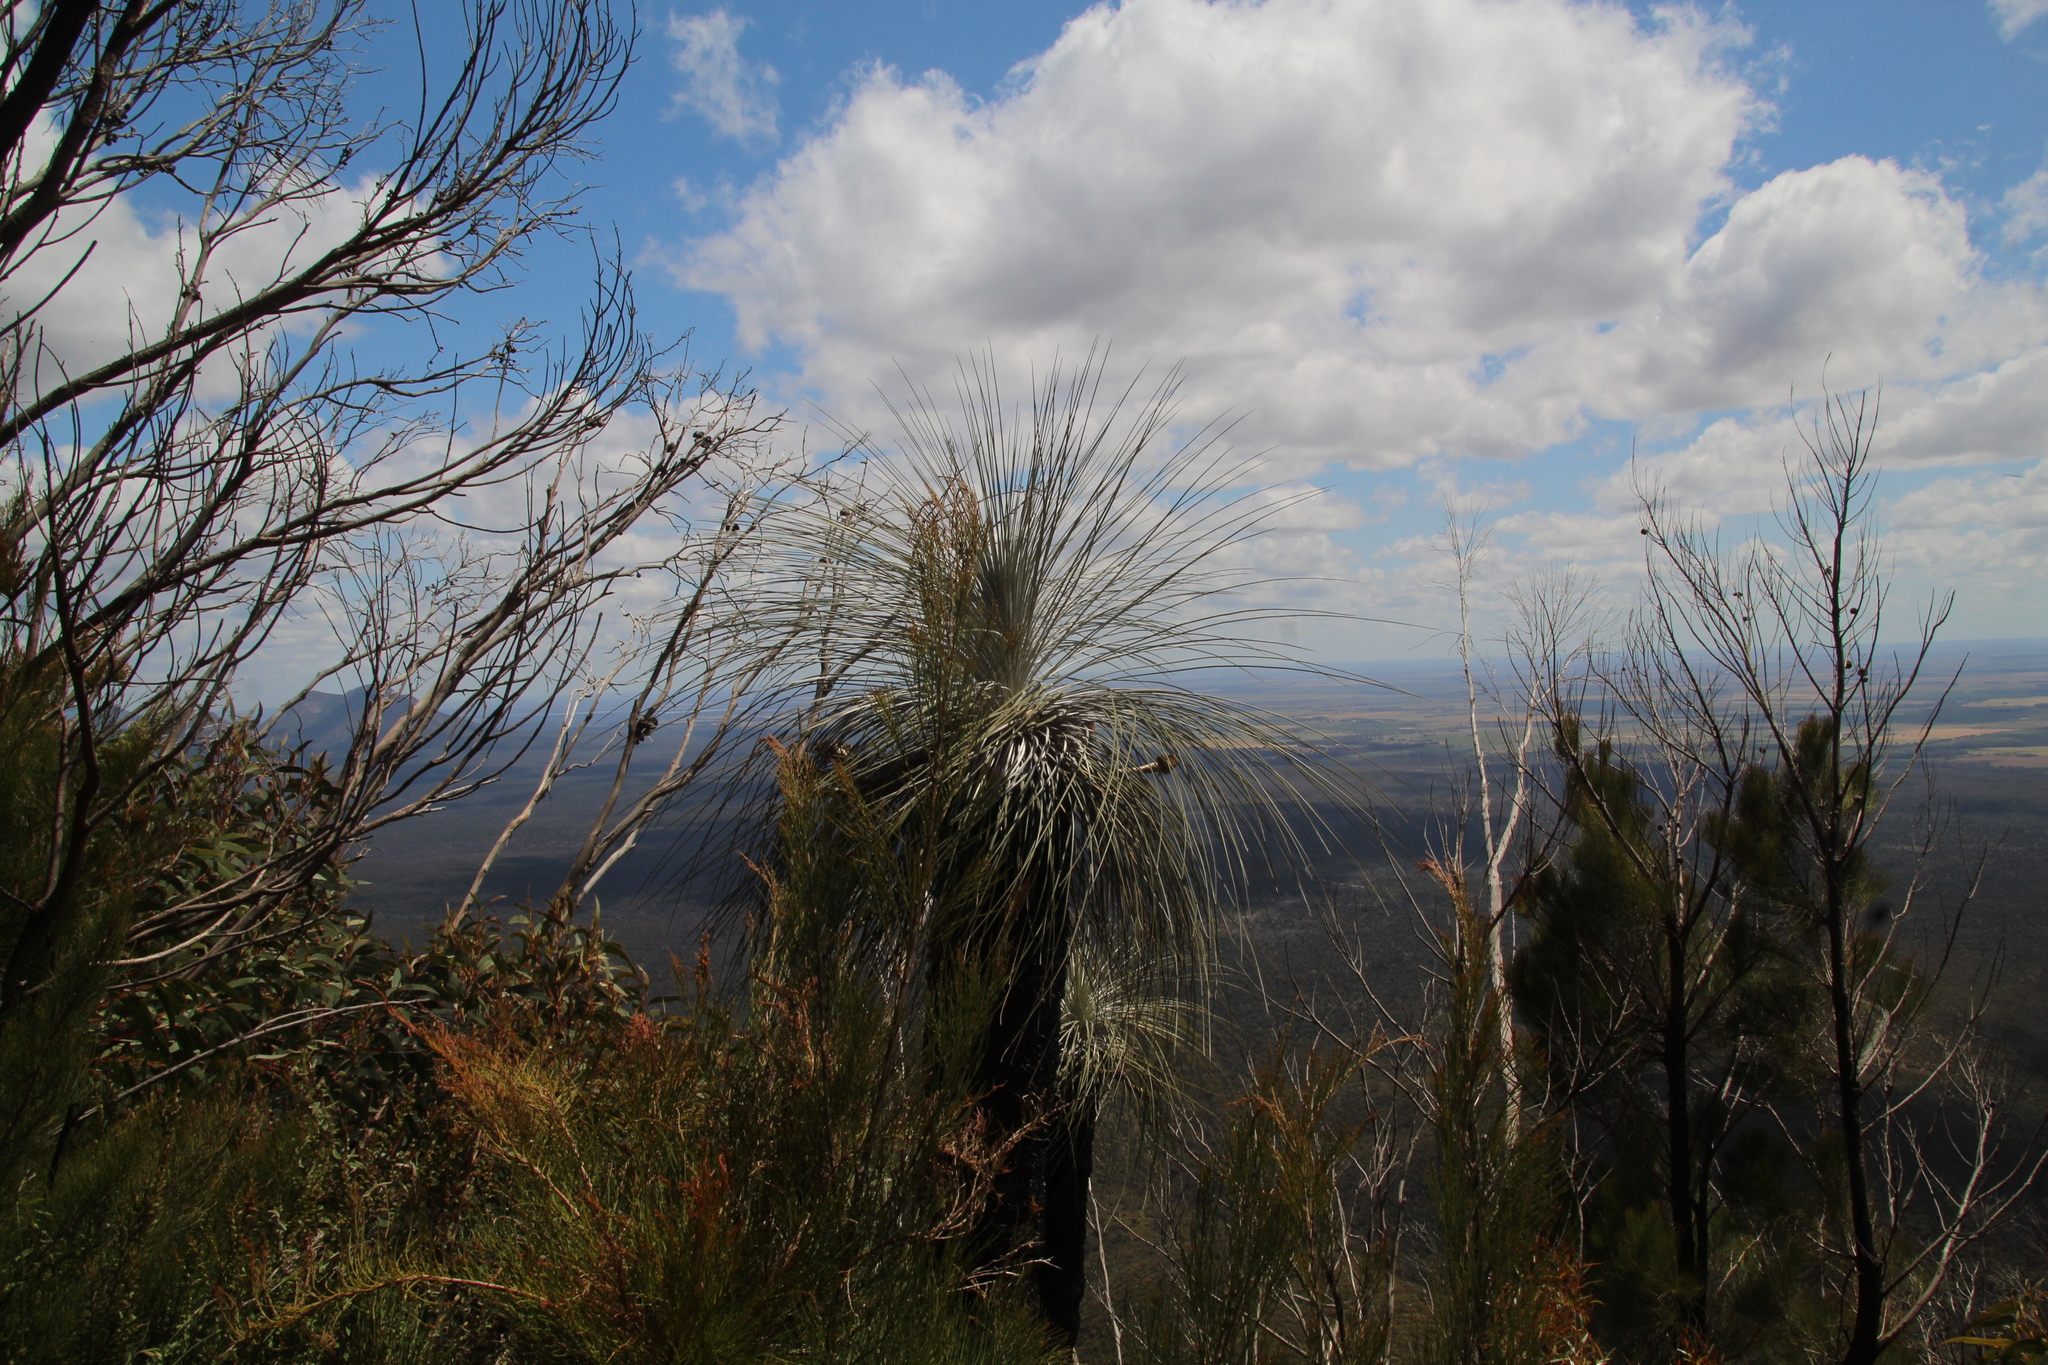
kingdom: Plantae
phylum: Tracheophyta
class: Liliopsida
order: Arecales
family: Dasypogonaceae
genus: Kingia
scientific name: Kingia australis
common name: Black gin
